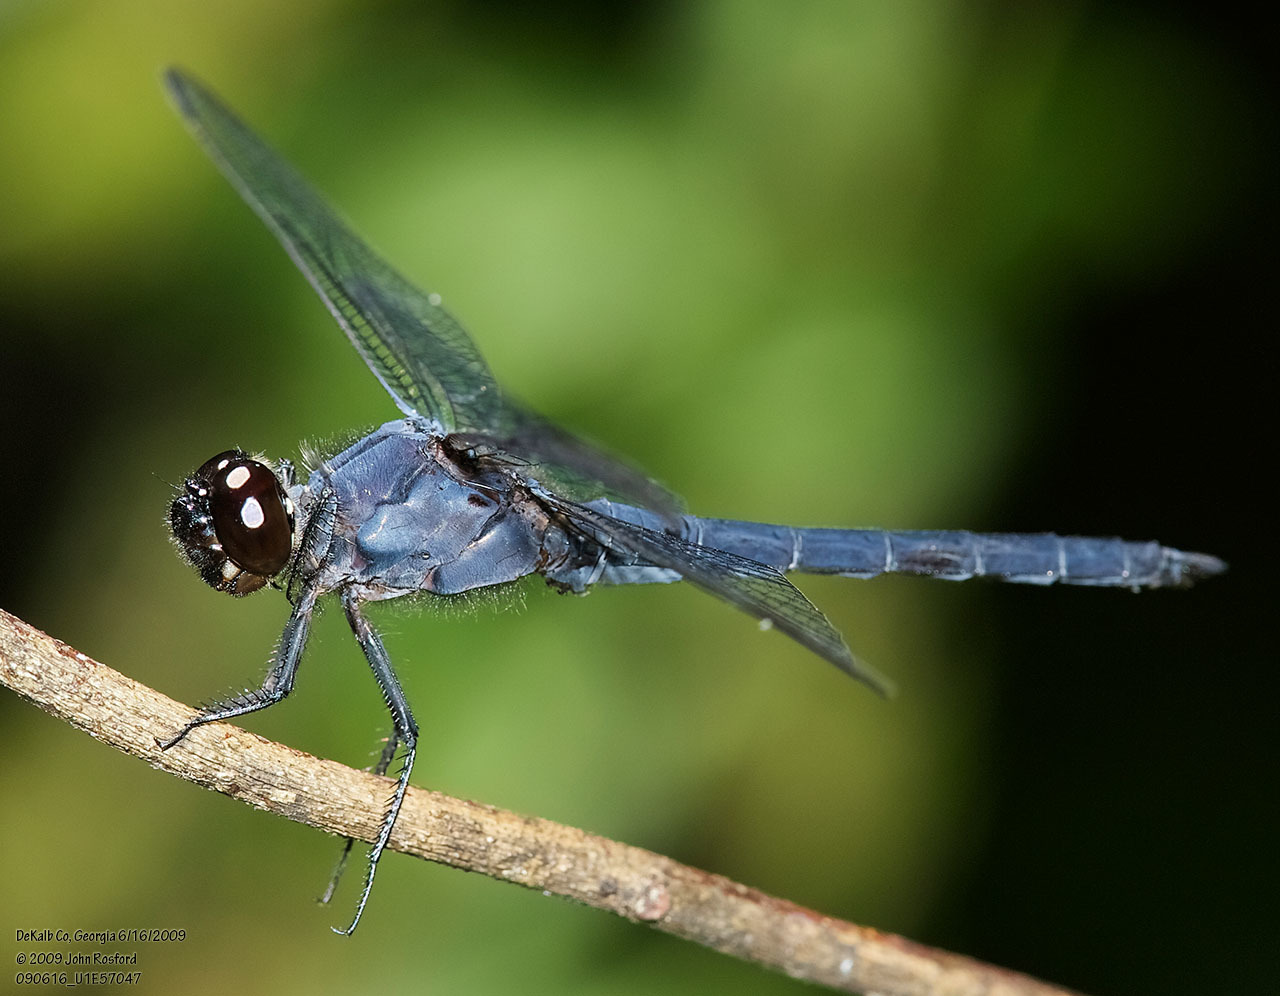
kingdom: Animalia
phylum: Arthropoda
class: Insecta
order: Odonata
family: Libellulidae
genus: Libellula
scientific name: Libellula incesta
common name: Slaty skimmer
